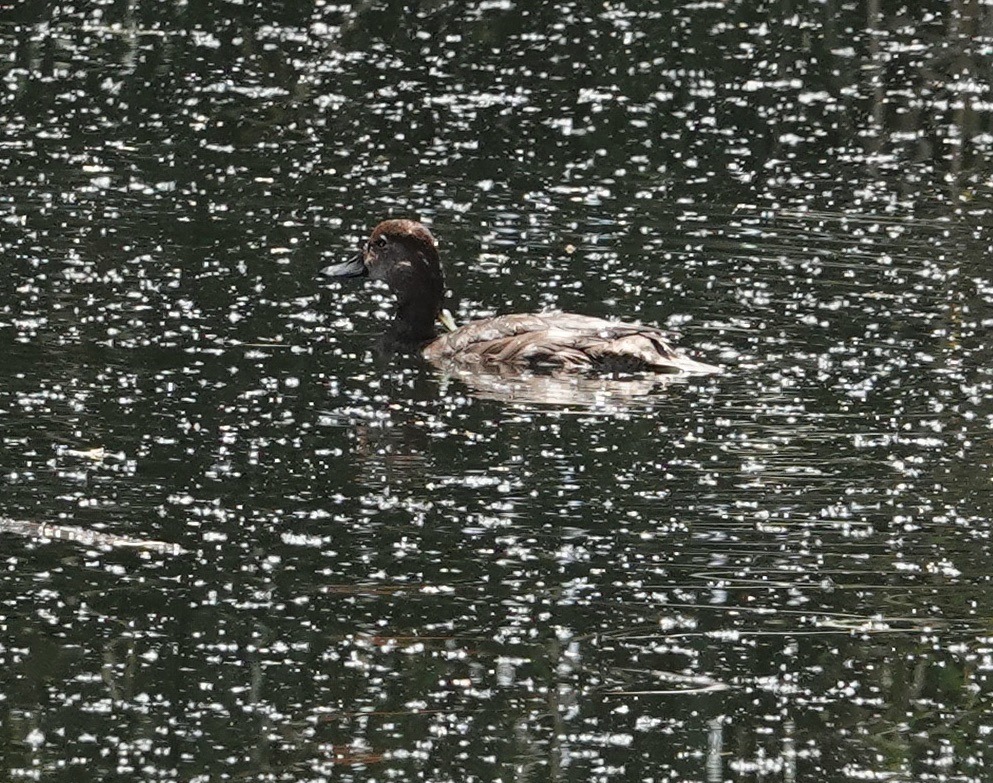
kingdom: Animalia
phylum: Chordata
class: Aves
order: Anseriformes
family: Anatidae
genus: Aythya
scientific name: Aythya americana
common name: Redhead
